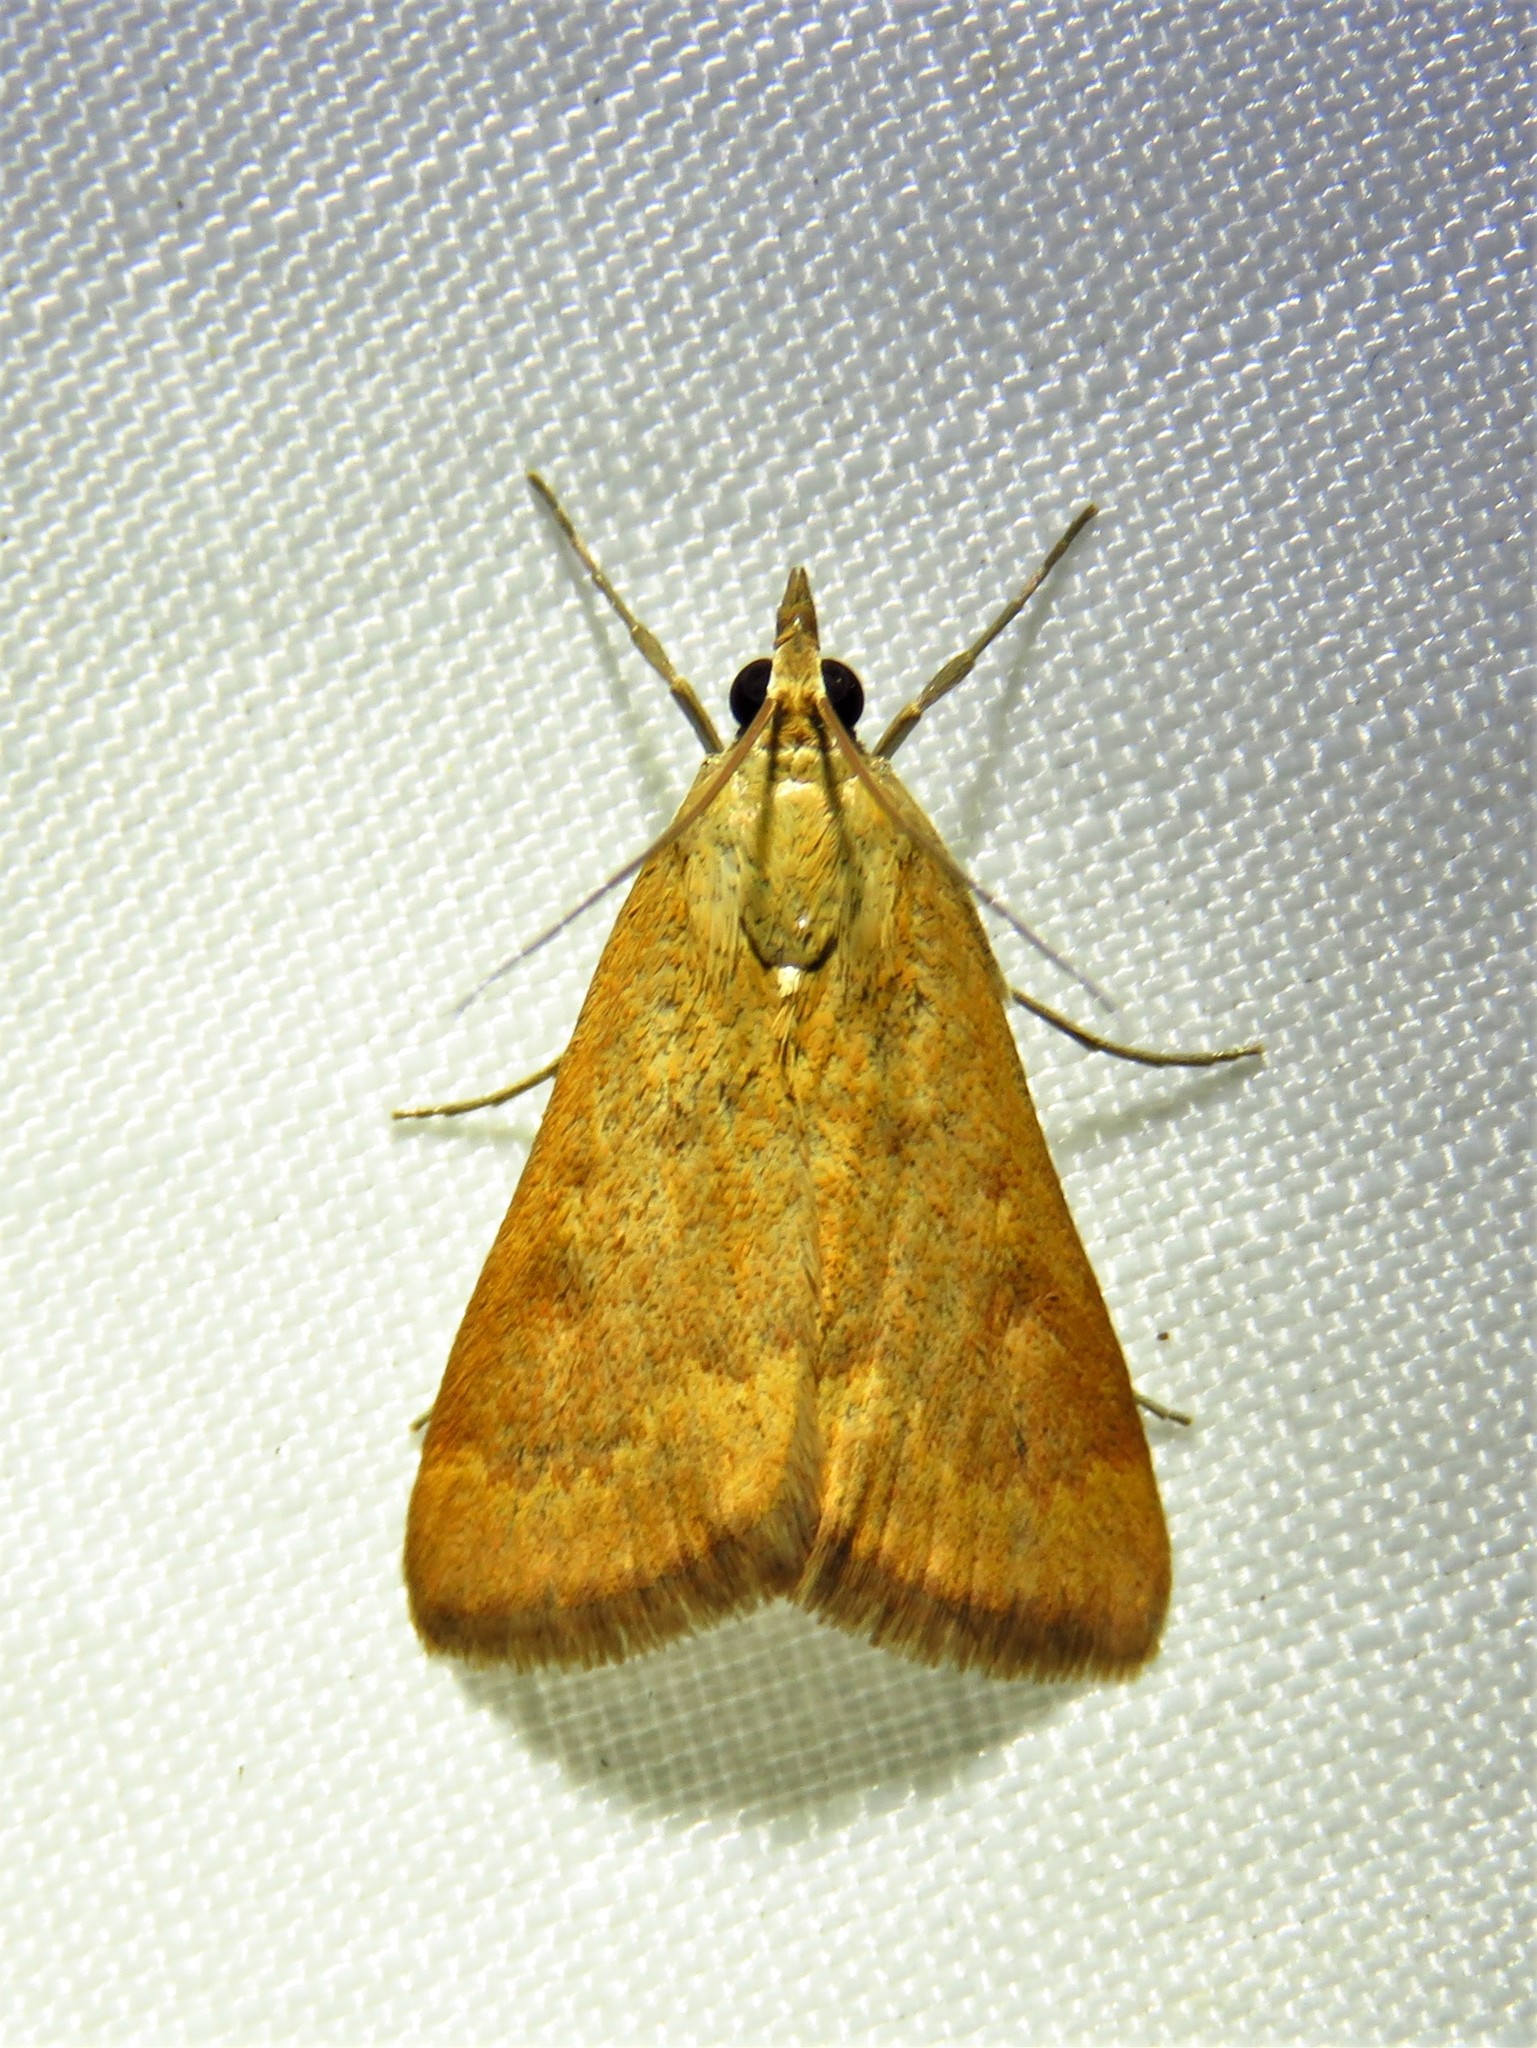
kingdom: Animalia
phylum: Arthropoda
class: Insecta
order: Lepidoptera
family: Crambidae
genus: Achyra
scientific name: Achyra rantalis
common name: Garden webworm
